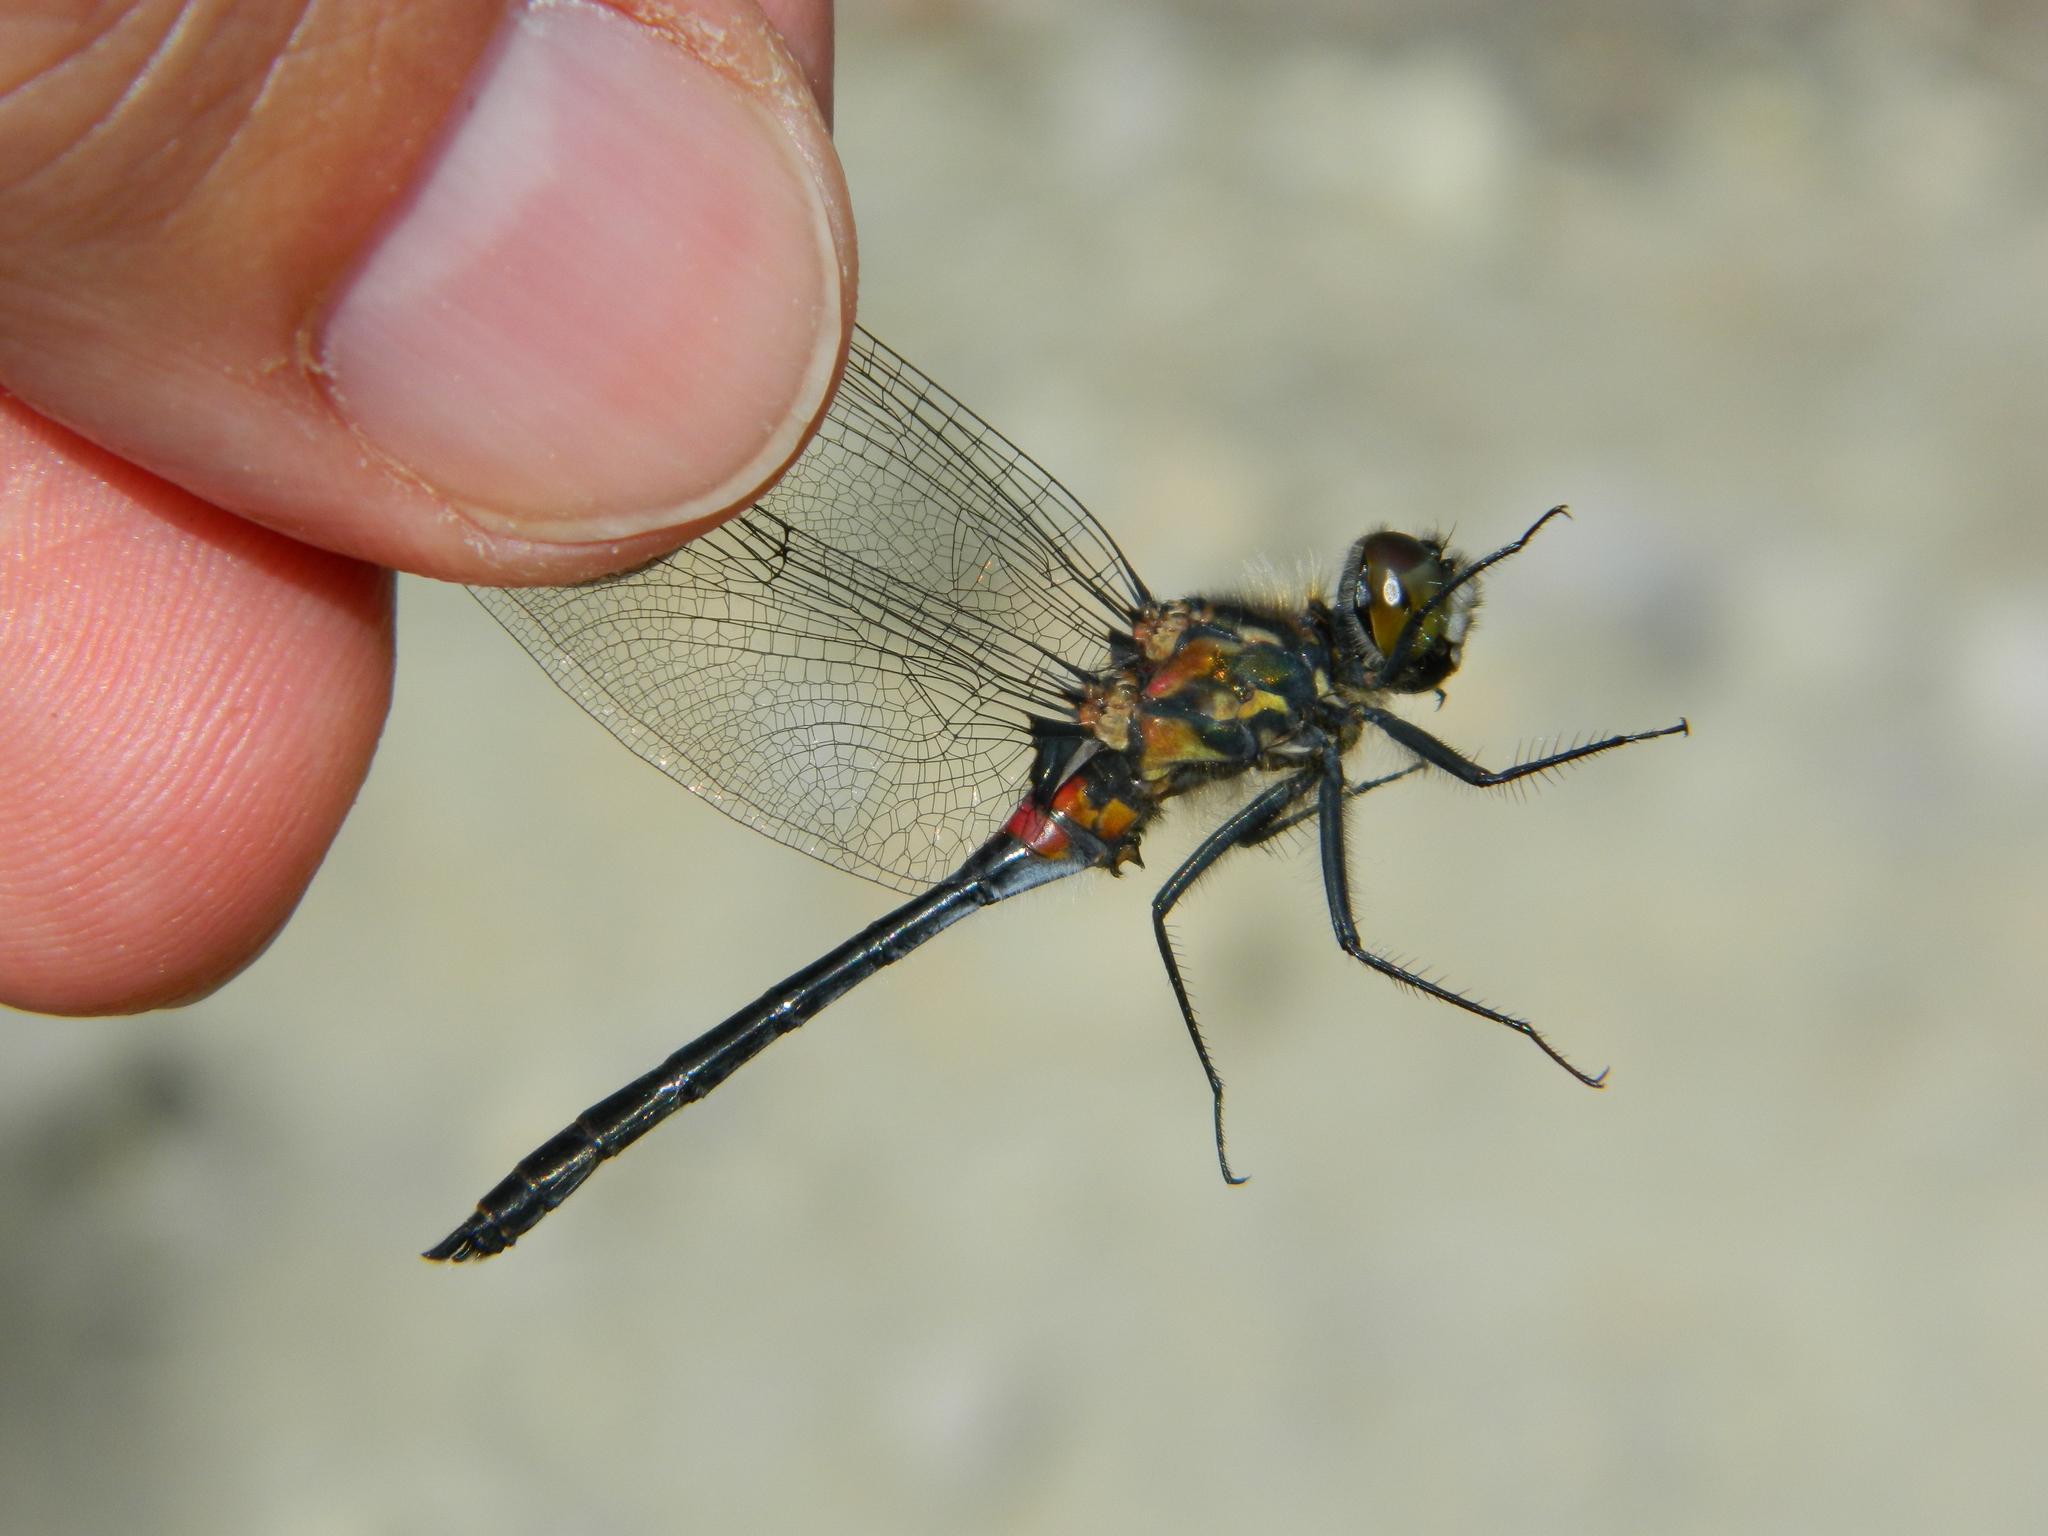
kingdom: Animalia
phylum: Arthropoda
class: Insecta
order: Odonata
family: Libellulidae
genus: Leucorrhinia
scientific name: Leucorrhinia glacialis
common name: Crimson-ringed whiteface
